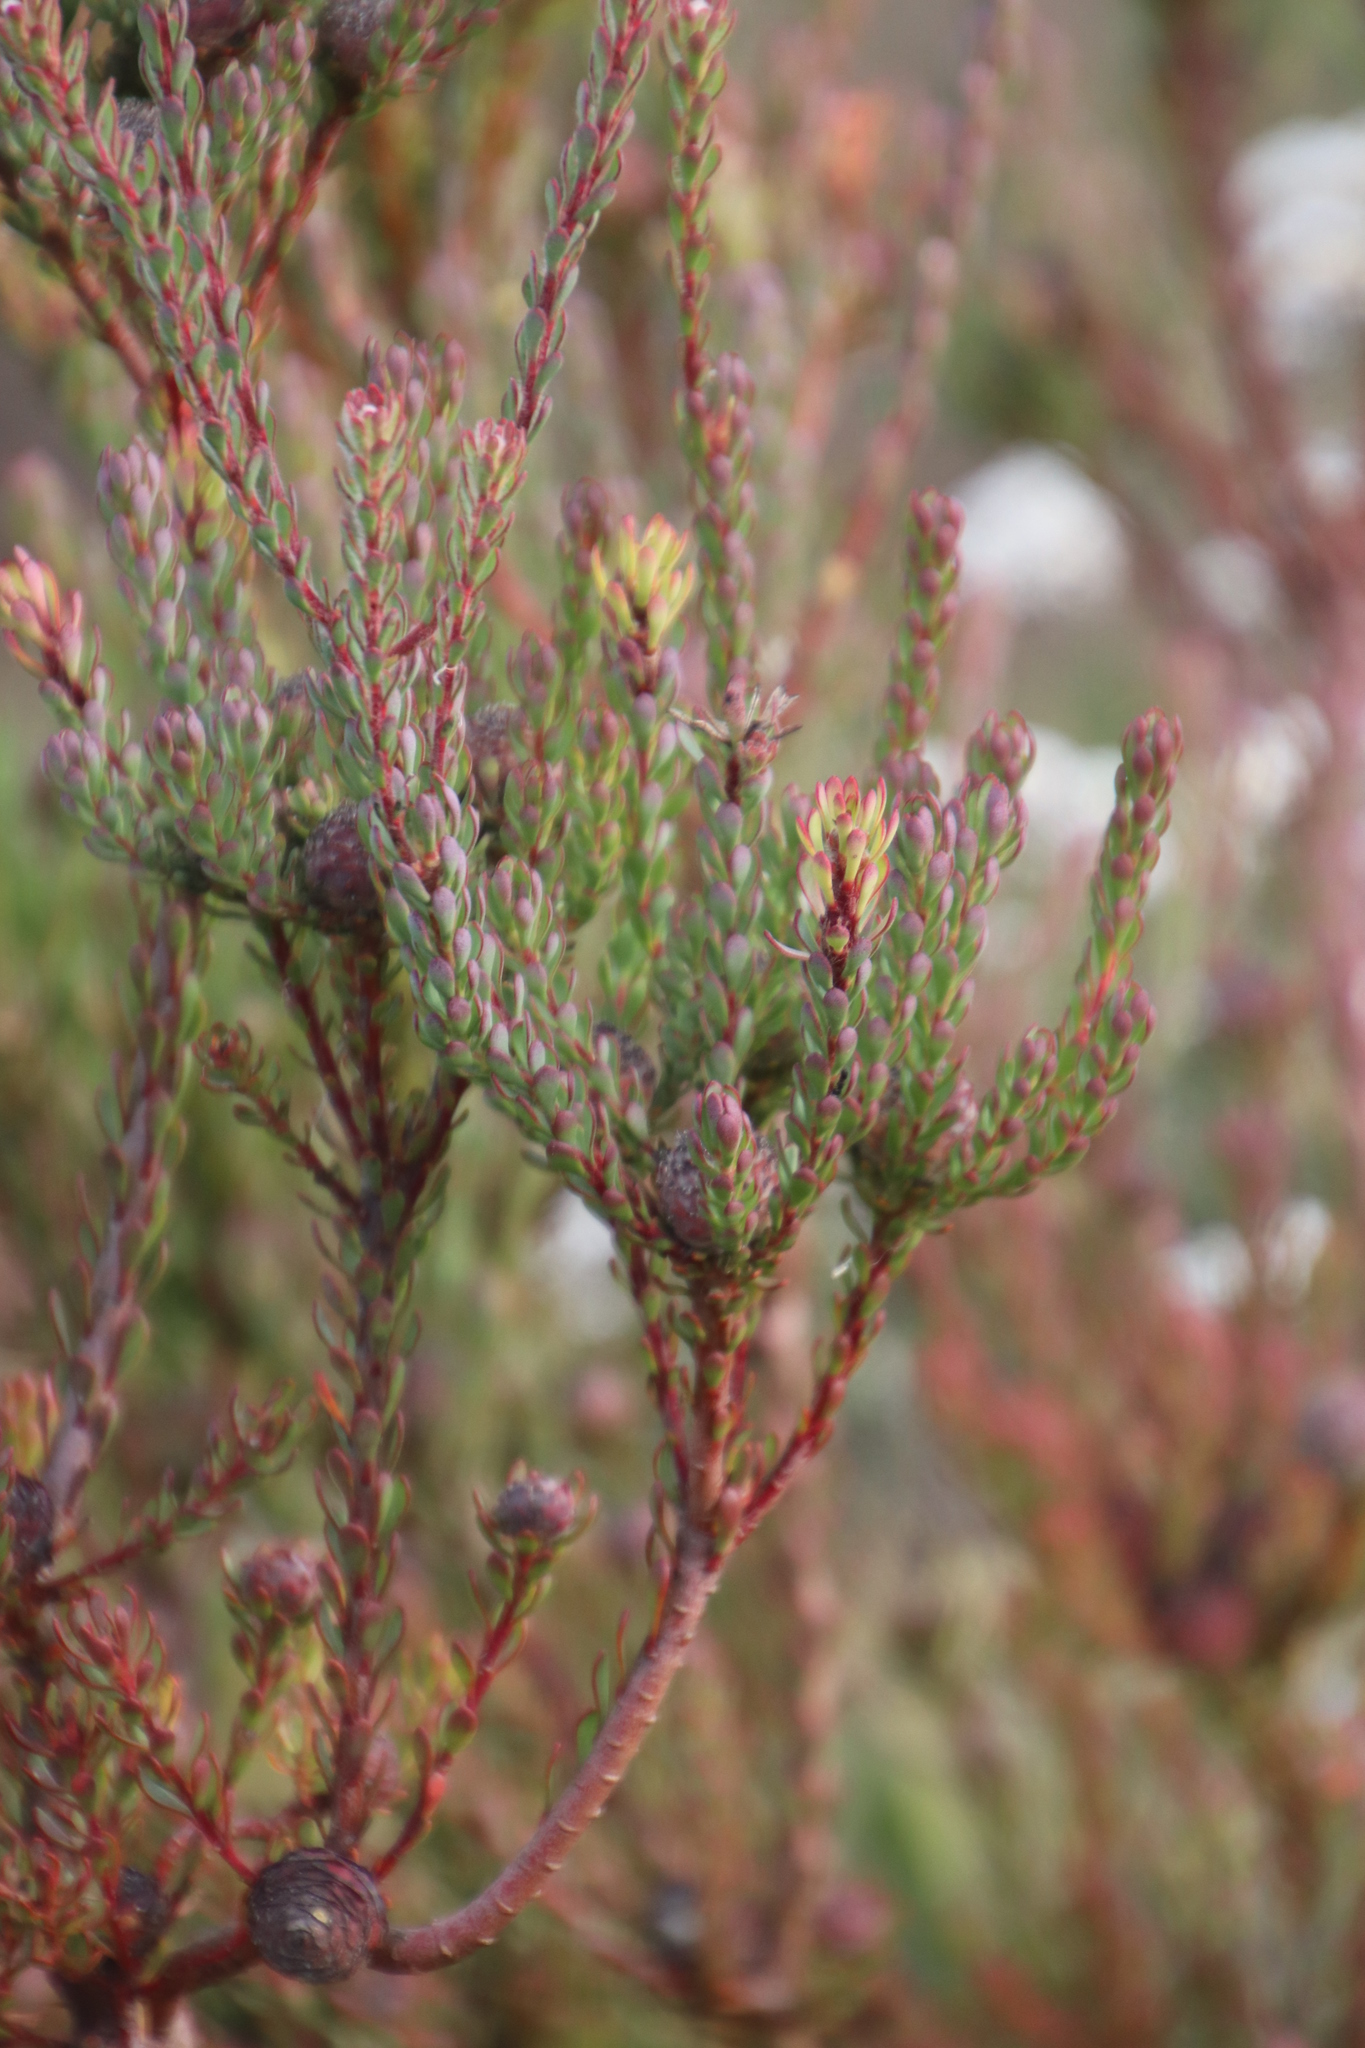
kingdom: Plantae
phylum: Tracheophyta
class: Magnoliopsida
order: Proteales
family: Proteaceae
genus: Leucadendron
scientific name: Leucadendron levisanus
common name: Cape flats conebush
